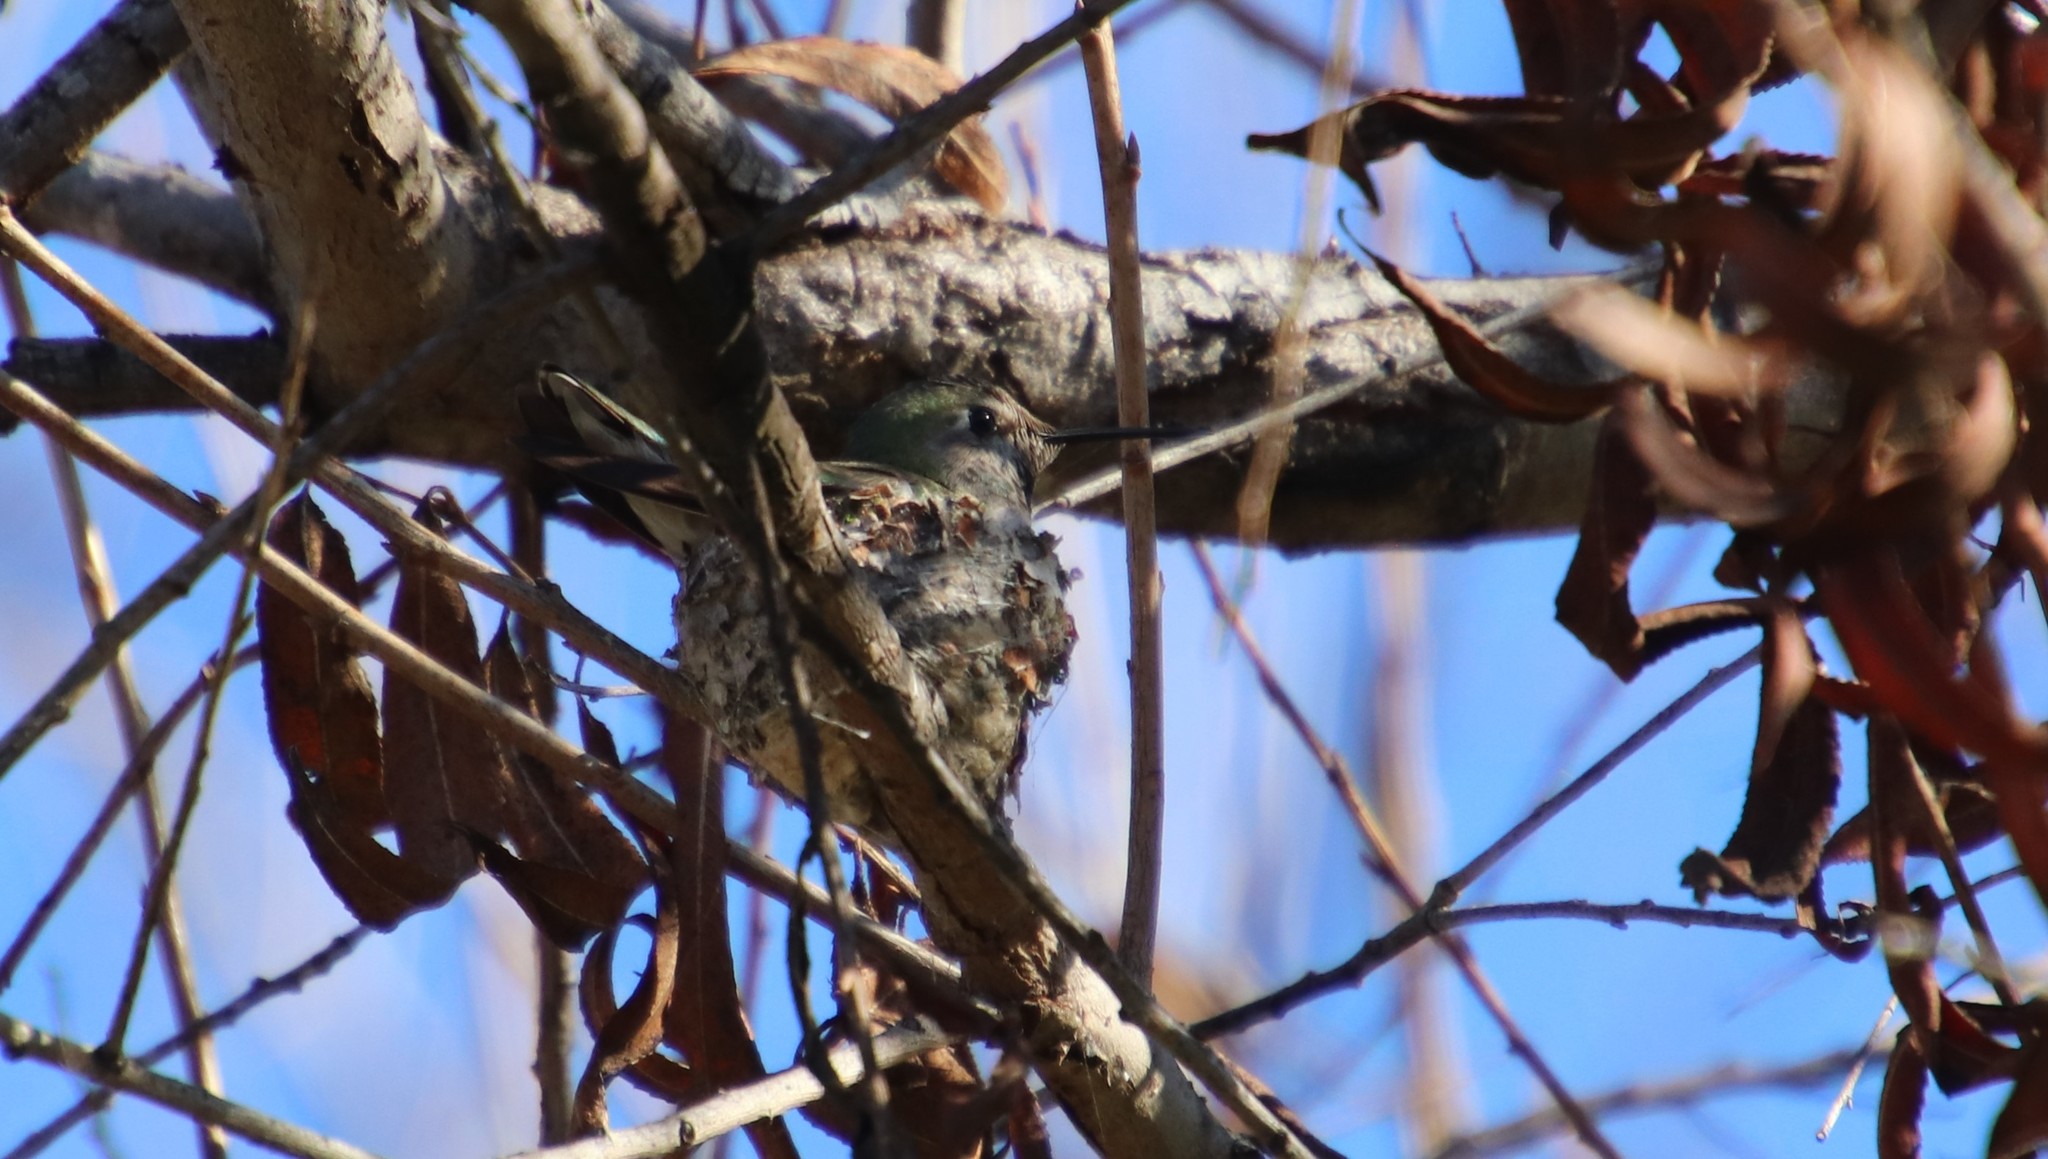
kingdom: Animalia
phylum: Chordata
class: Aves
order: Apodiformes
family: Trochilidae
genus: Calypte
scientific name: Calypte anna
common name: Anna's hummingbird
